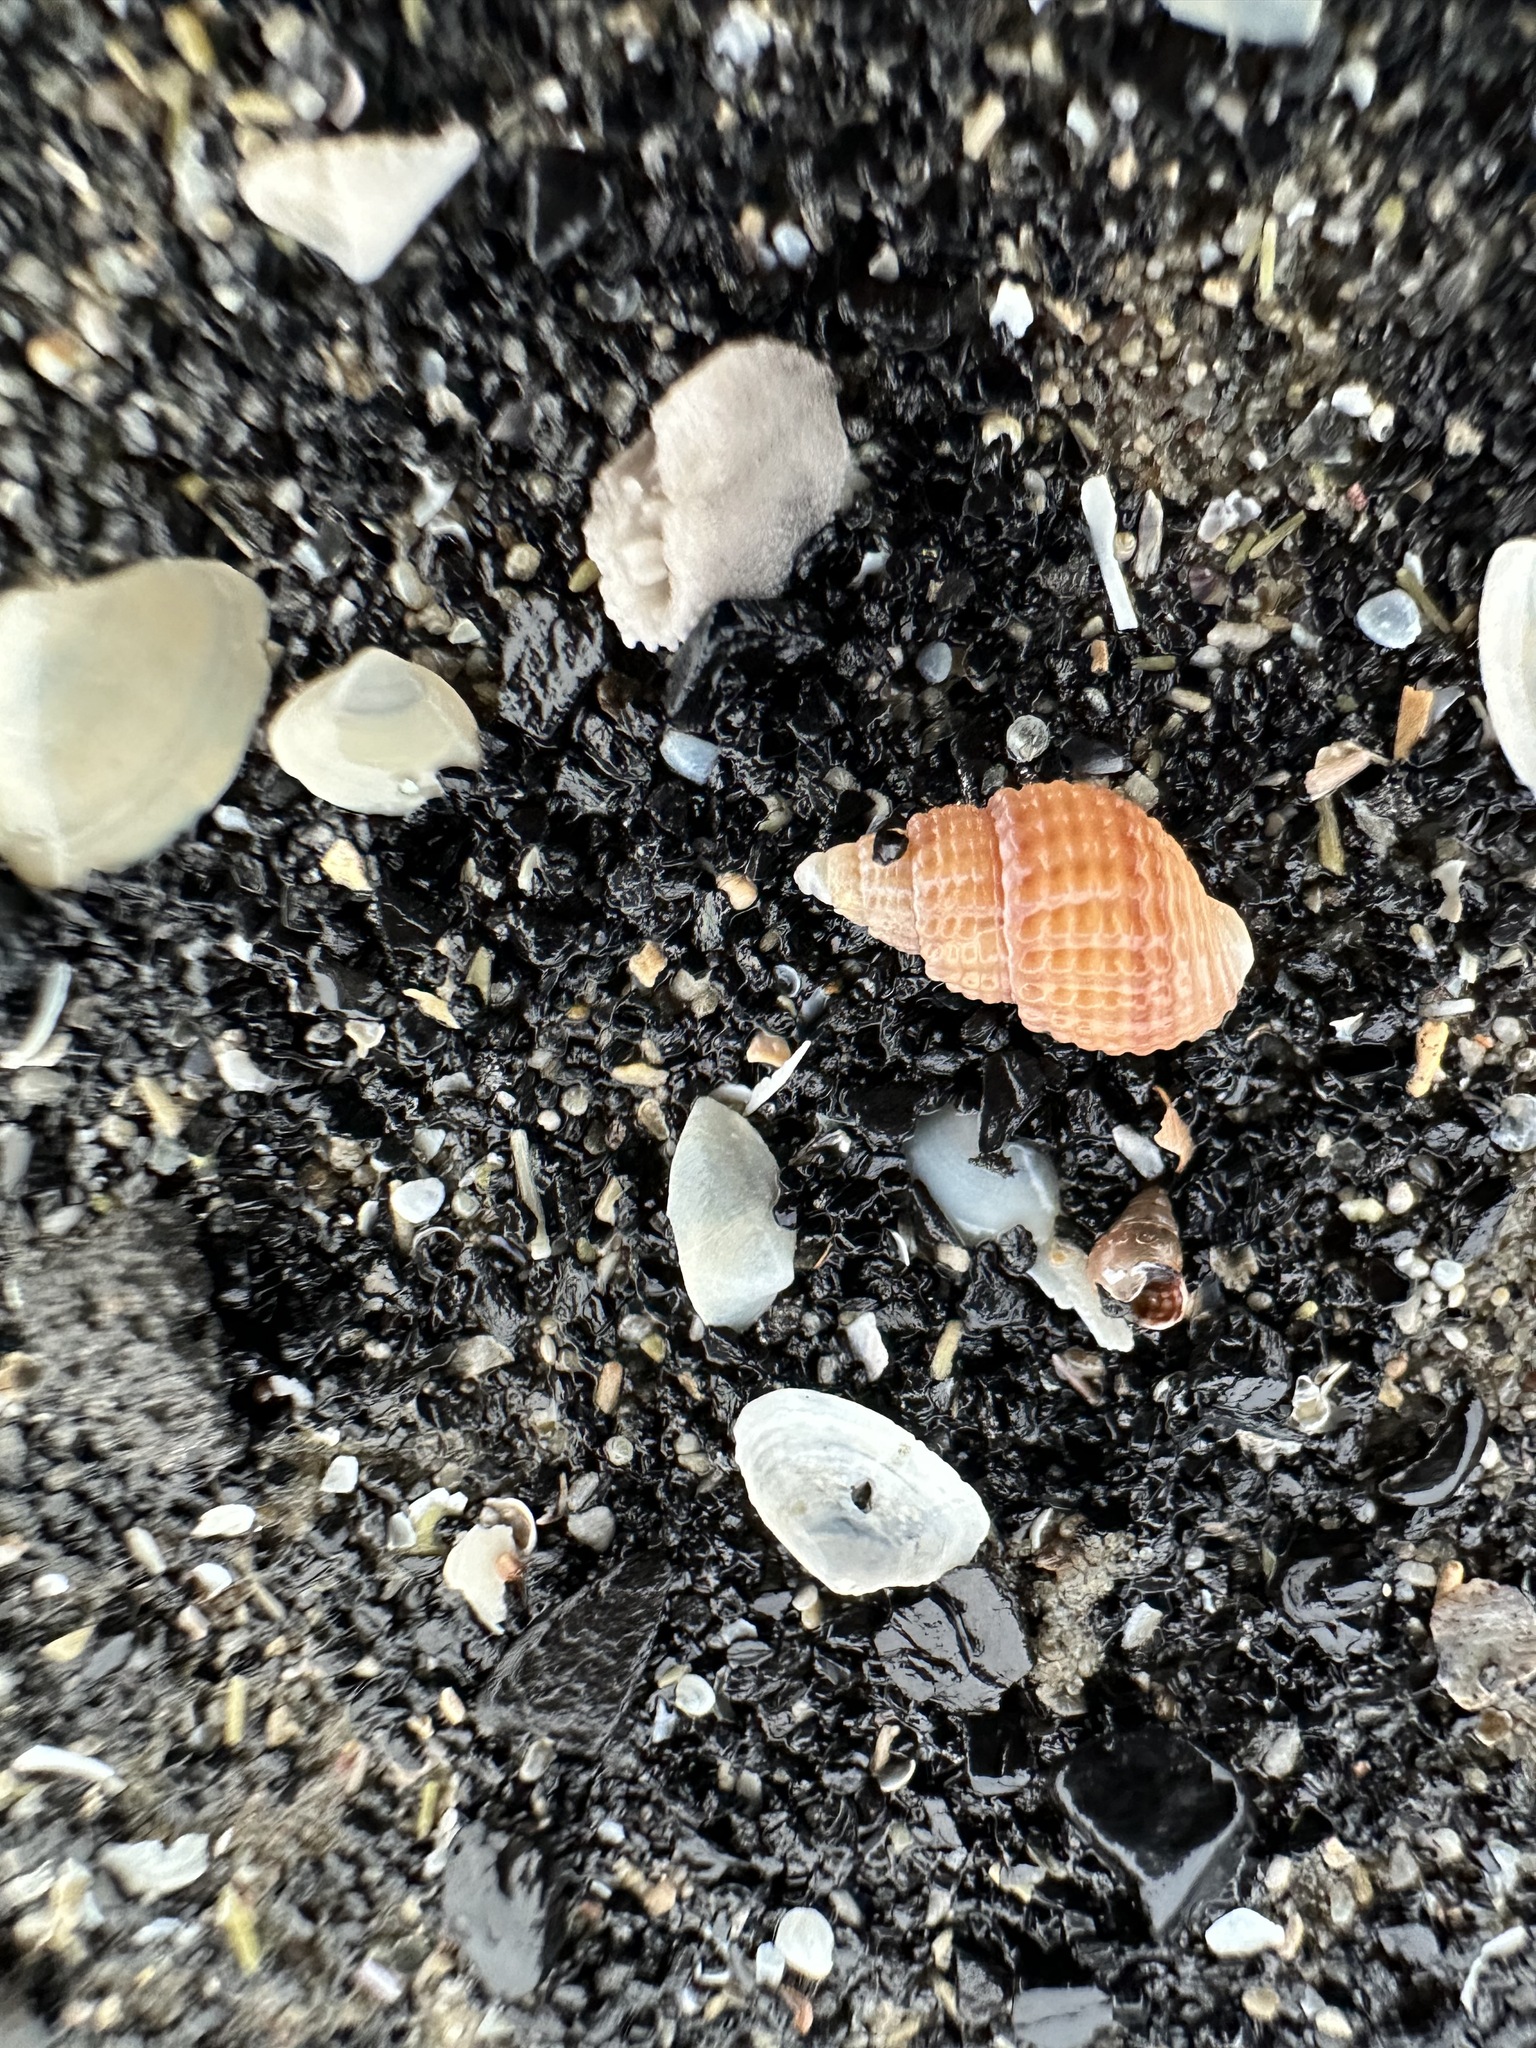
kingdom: Animalia
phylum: Mollusca
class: Gastropoda
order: Neogastropoda
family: Nassariidae
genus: Ilyanassa
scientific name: Ilyanassa trivittata
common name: Three-line mudsnail
